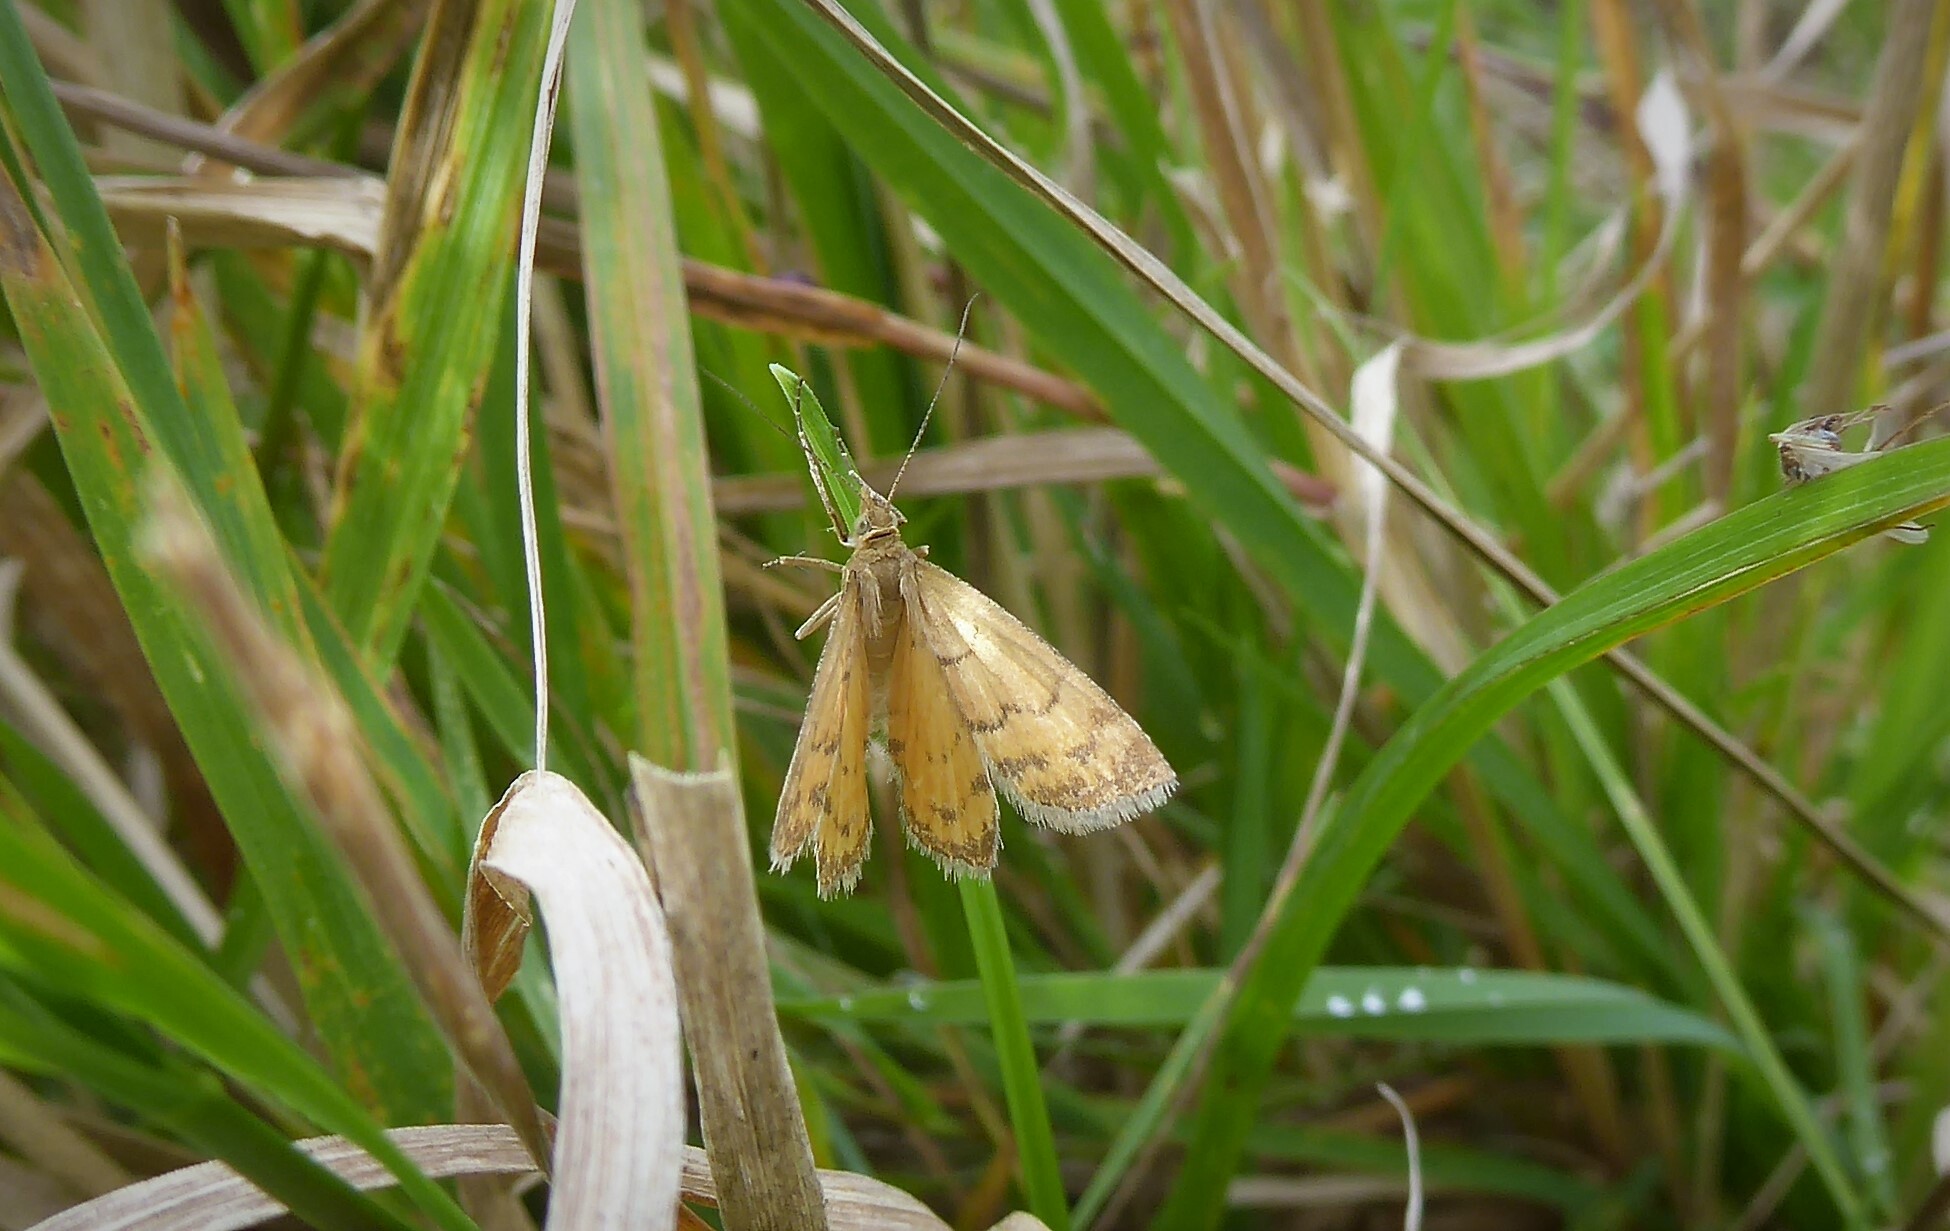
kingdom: Animalia
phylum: Arthropoda
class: Insecta
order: Lepidoptera
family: Geometridae
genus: Asaphodes
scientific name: Asaphodes abrogata
